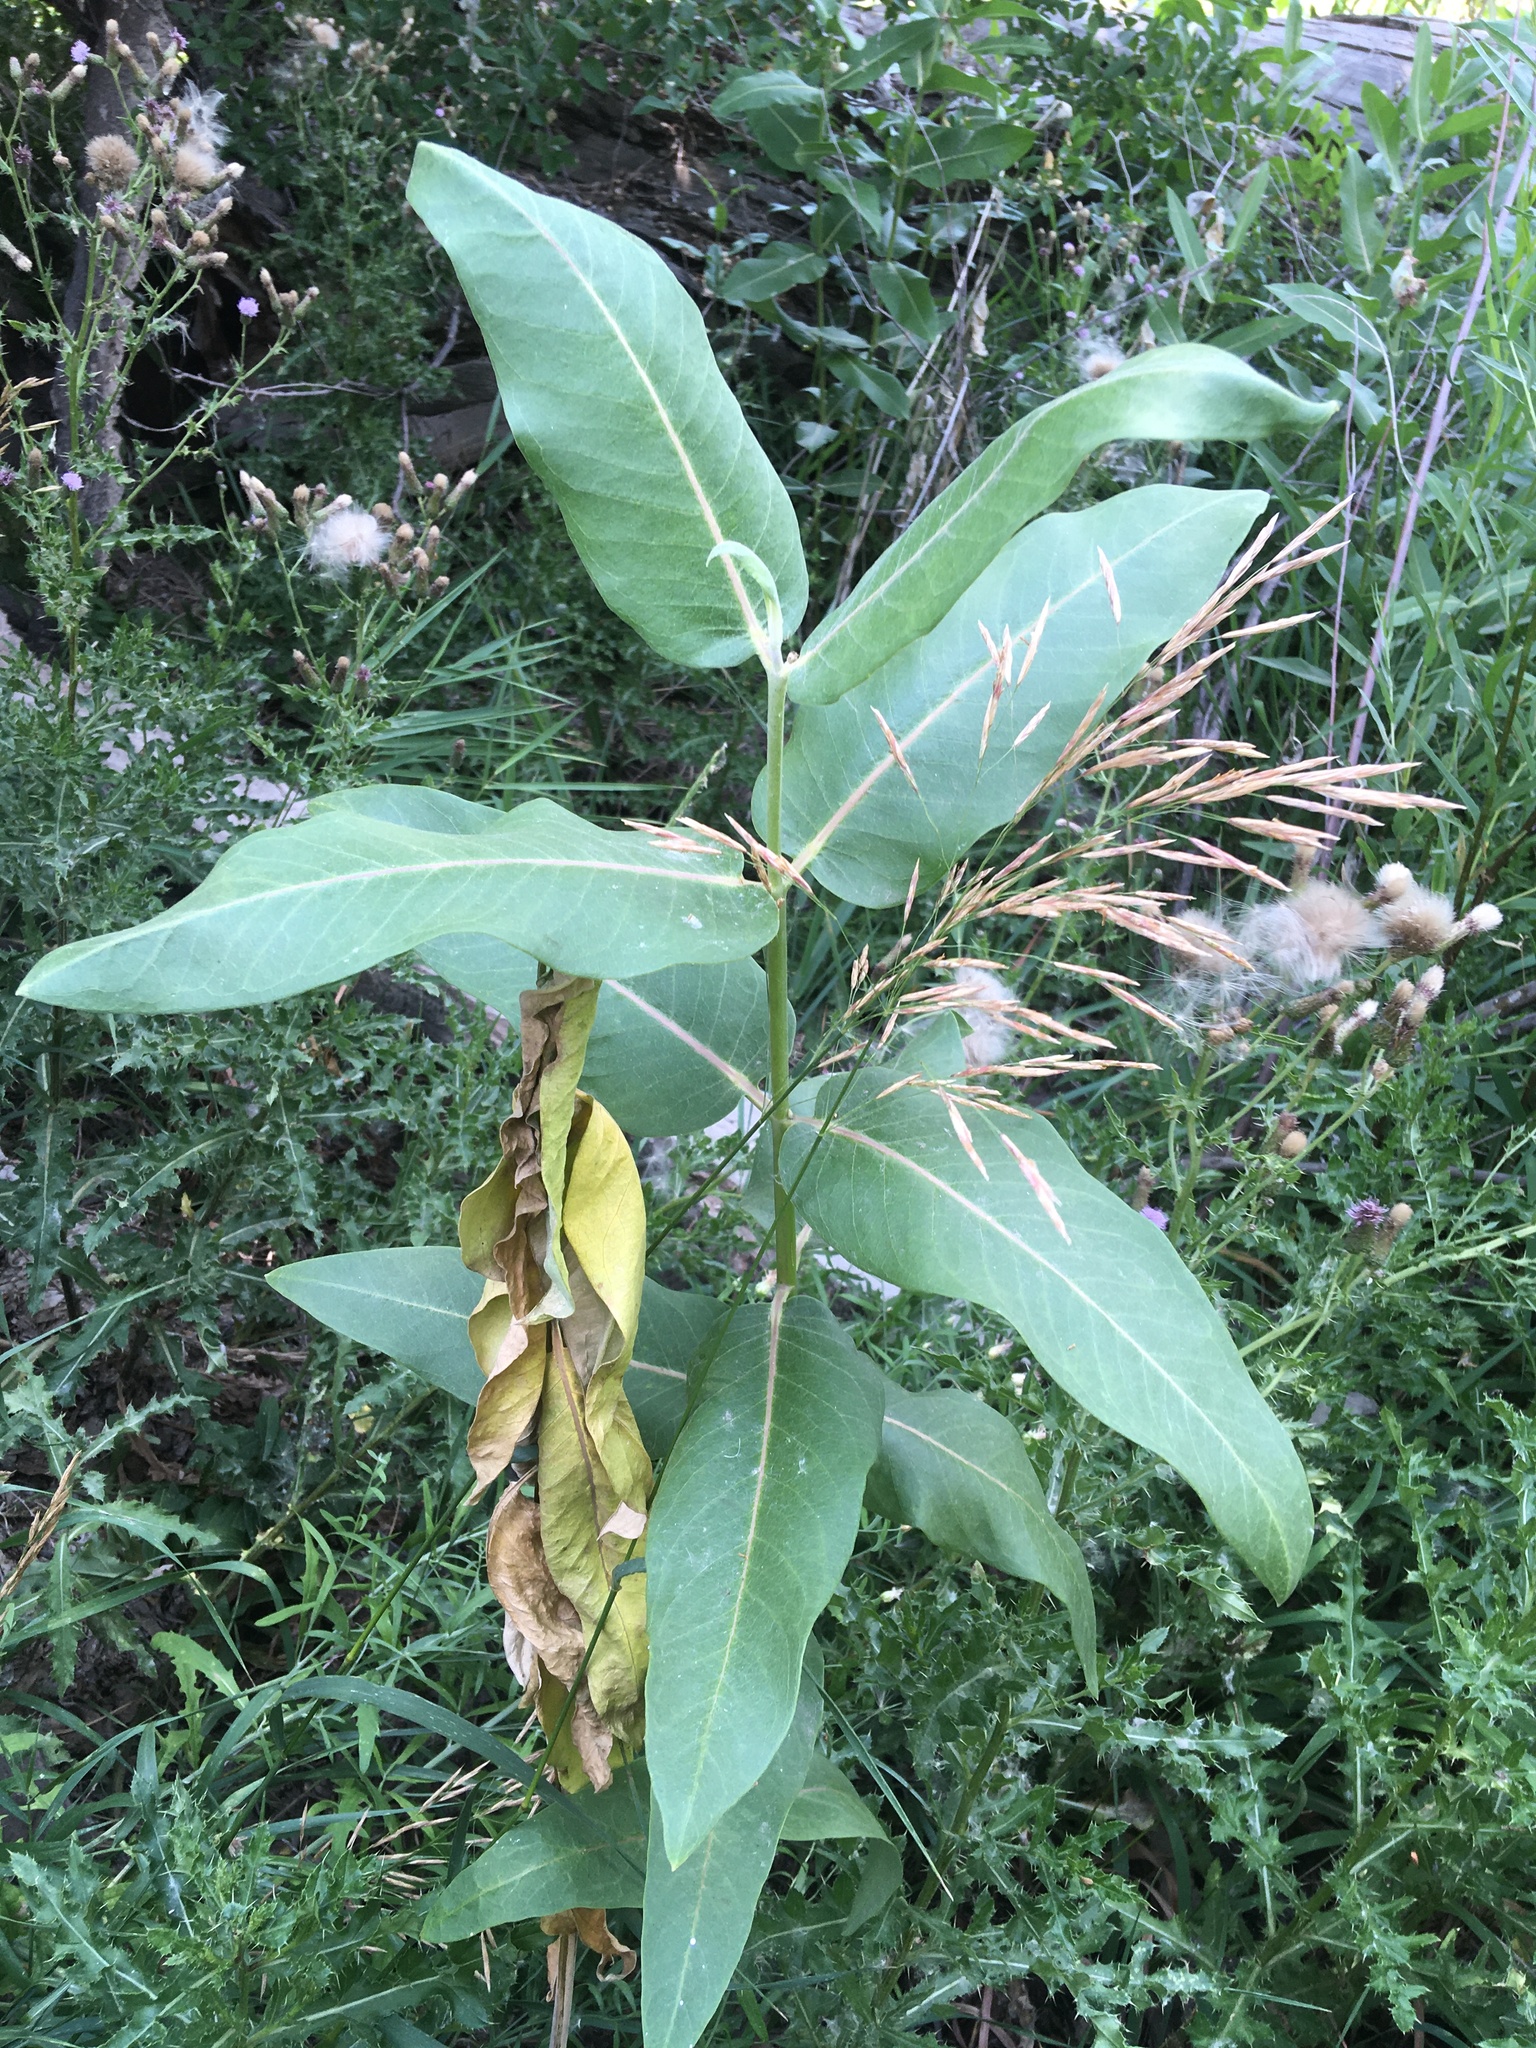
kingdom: Plantae
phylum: Tracheophyta
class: Magnoliopsida
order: Gentianales
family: Apocynaceae
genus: Asclepias
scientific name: Asclepias speciosa
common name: Showy milkweed
